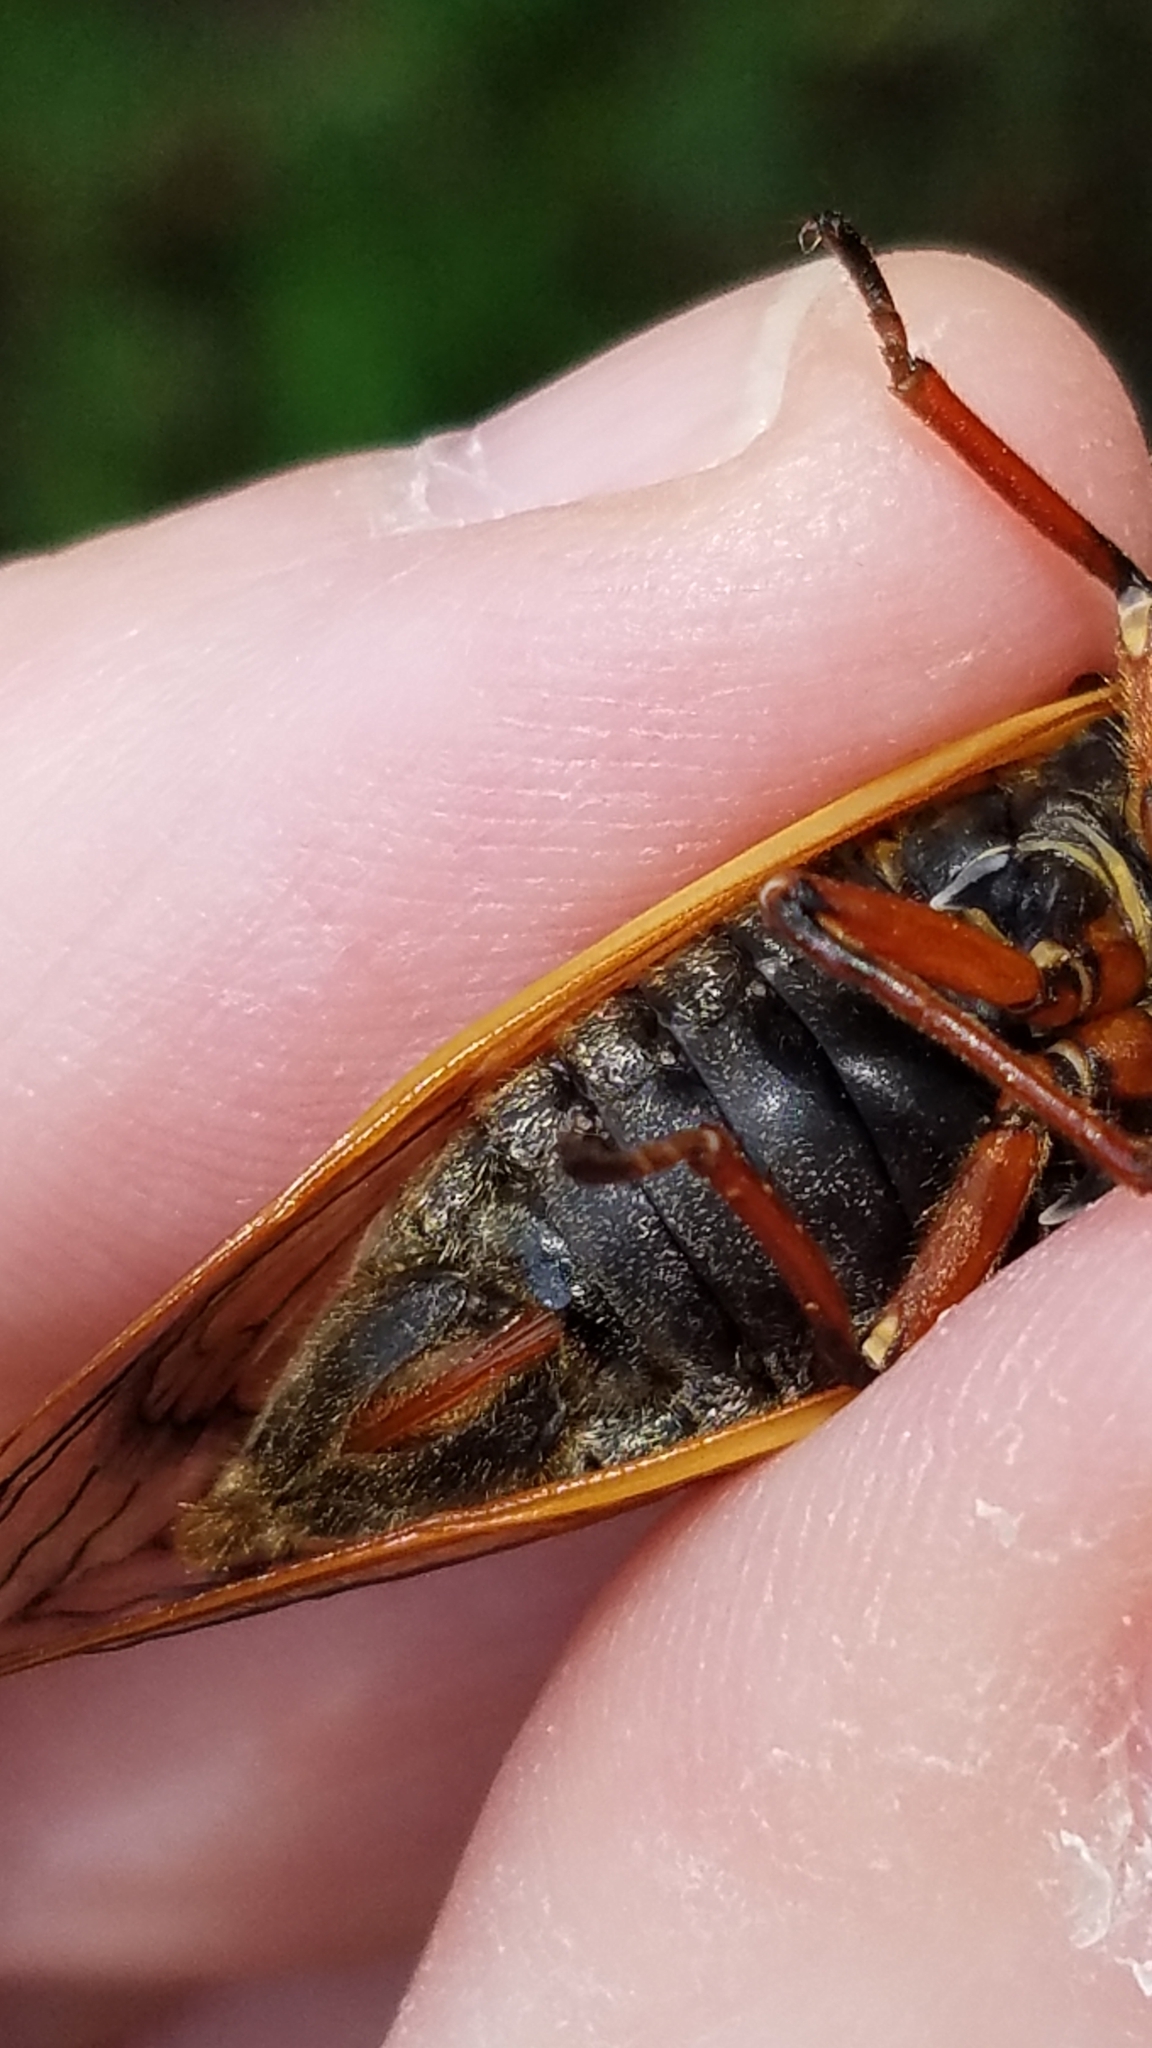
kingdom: Animalia
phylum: Arthropoda
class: Insecta
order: Hemiptera
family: Cicadidae
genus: Magicicada
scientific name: Magicicada cassini
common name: Cassin's 17-year cicada
